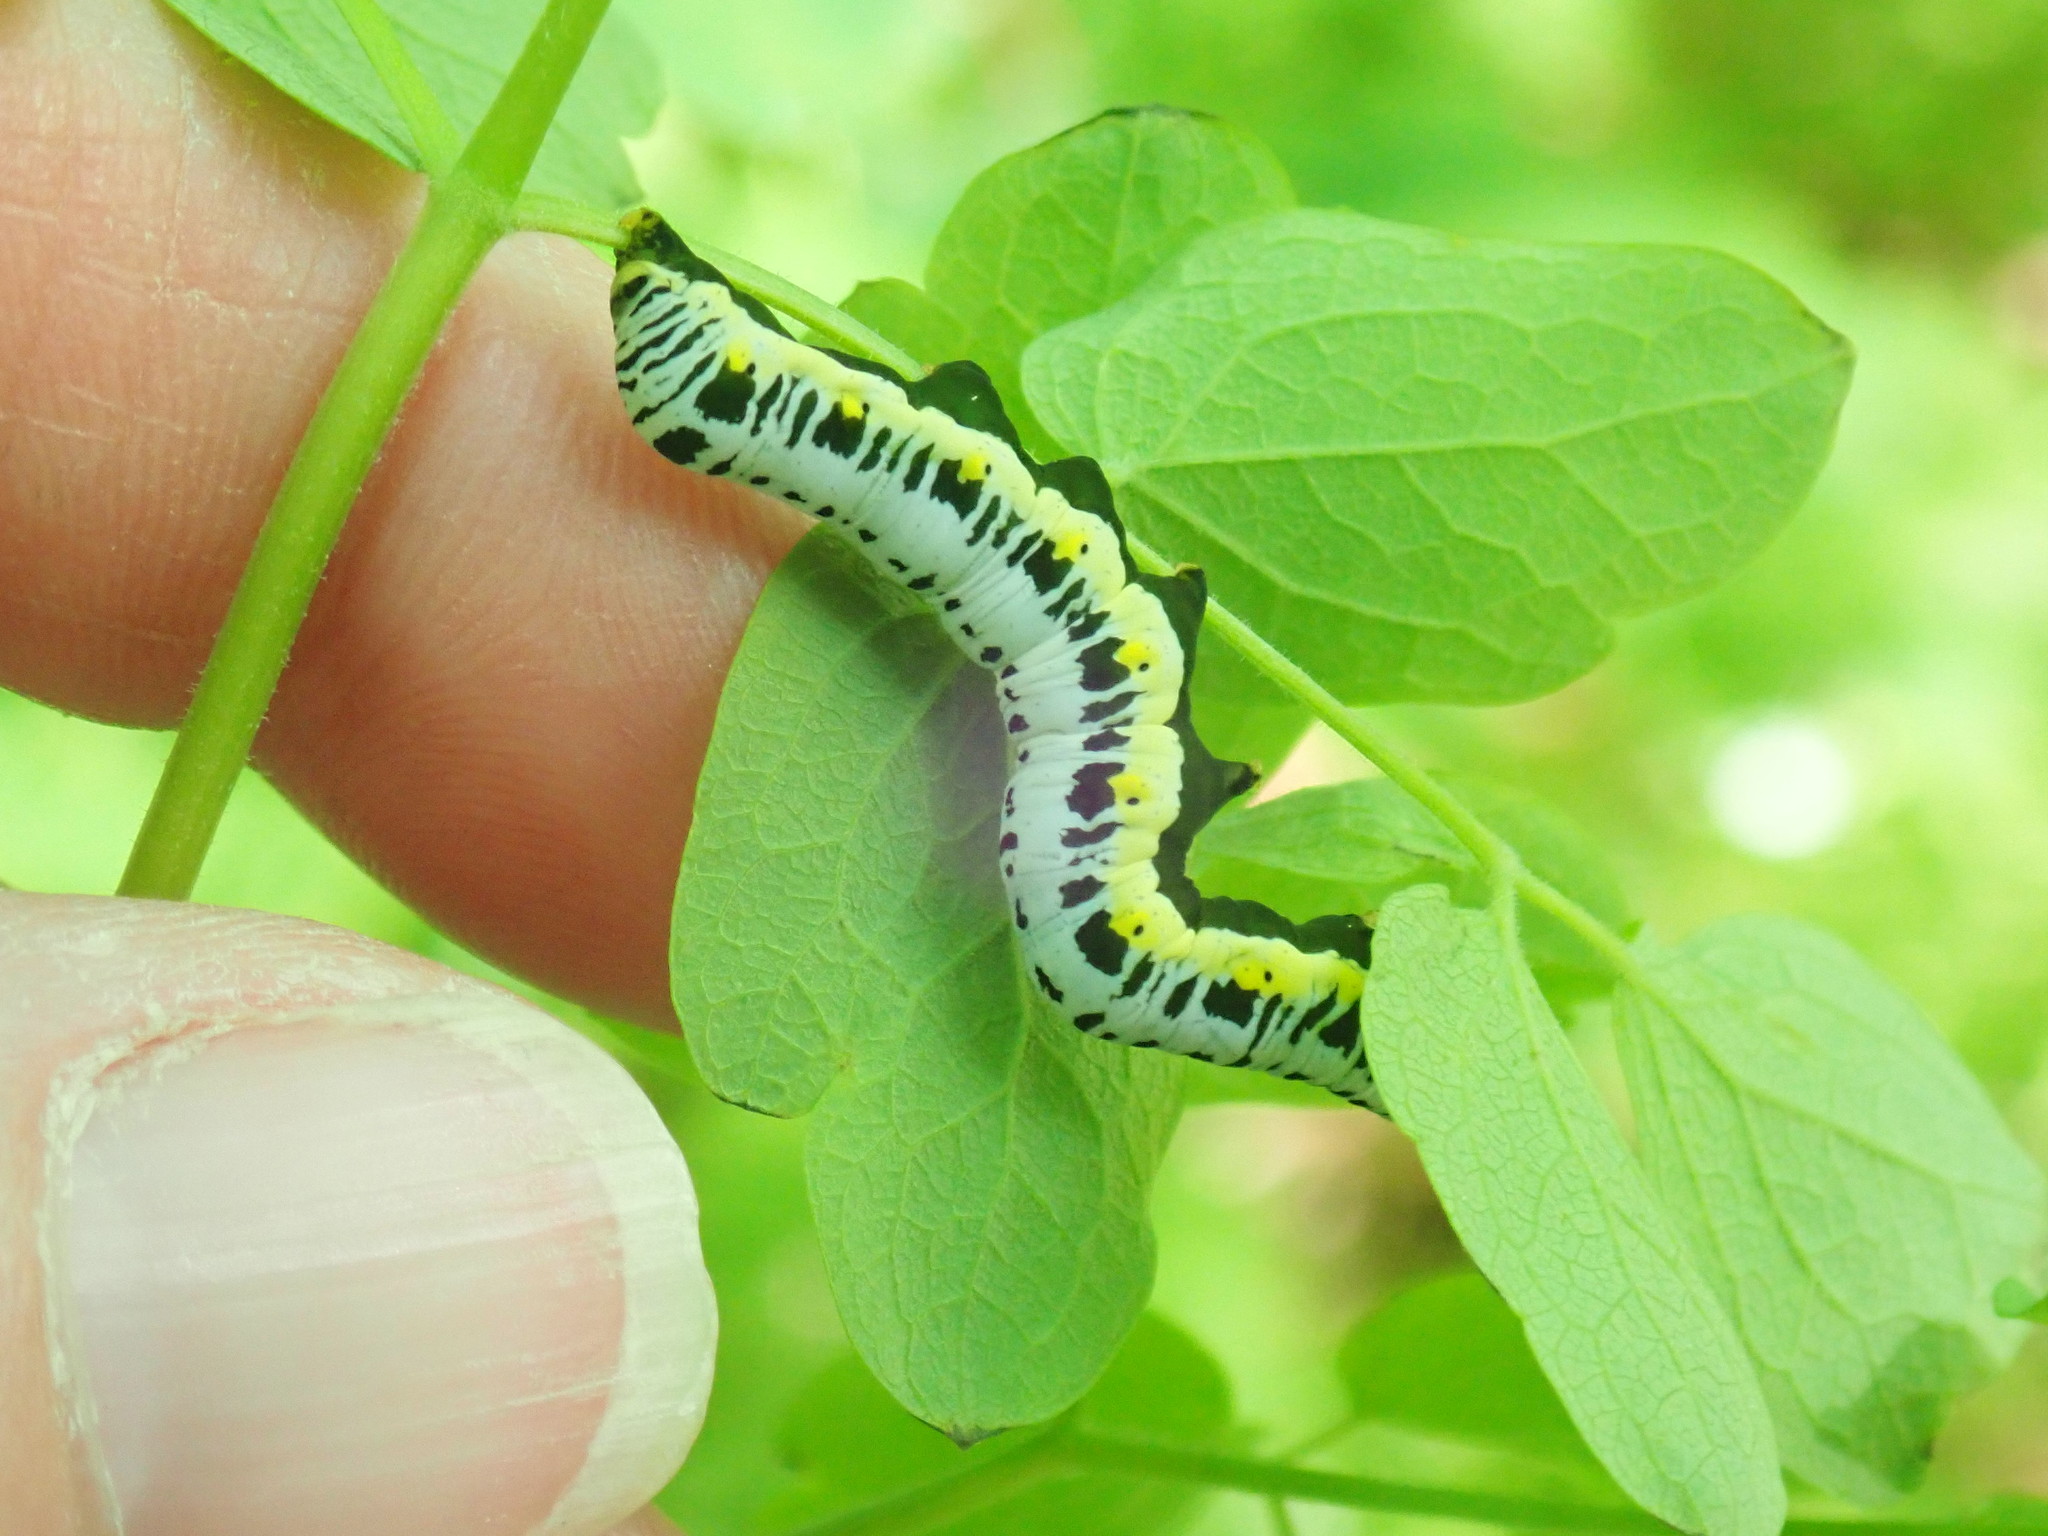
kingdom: Animalia
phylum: Arthropoda
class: Insecta
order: Lepidoptera
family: Erebidae
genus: Calyptra
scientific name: Calyptra canadensis
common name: Canadian owlet
